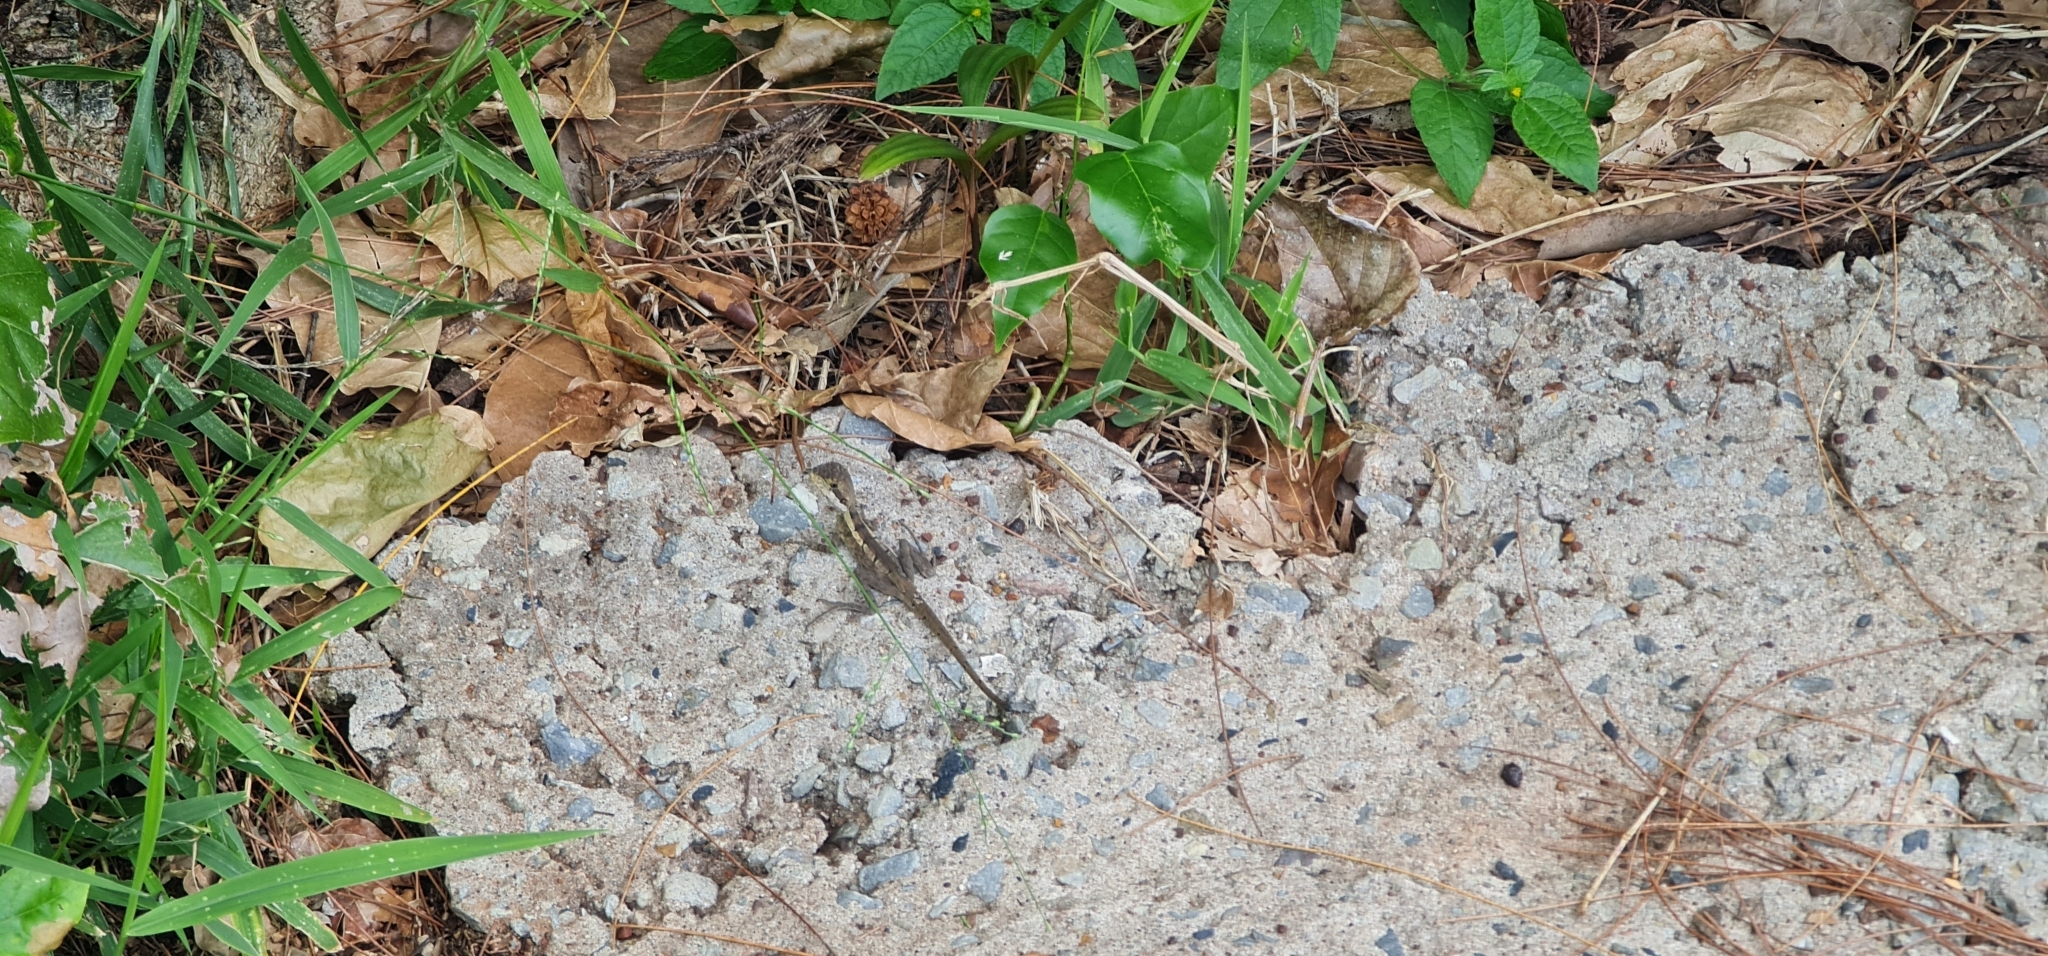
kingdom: Animalia
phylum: Chordata
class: Squamata
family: Agamidae
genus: Tropicagama
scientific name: Tropicagama temporalis
